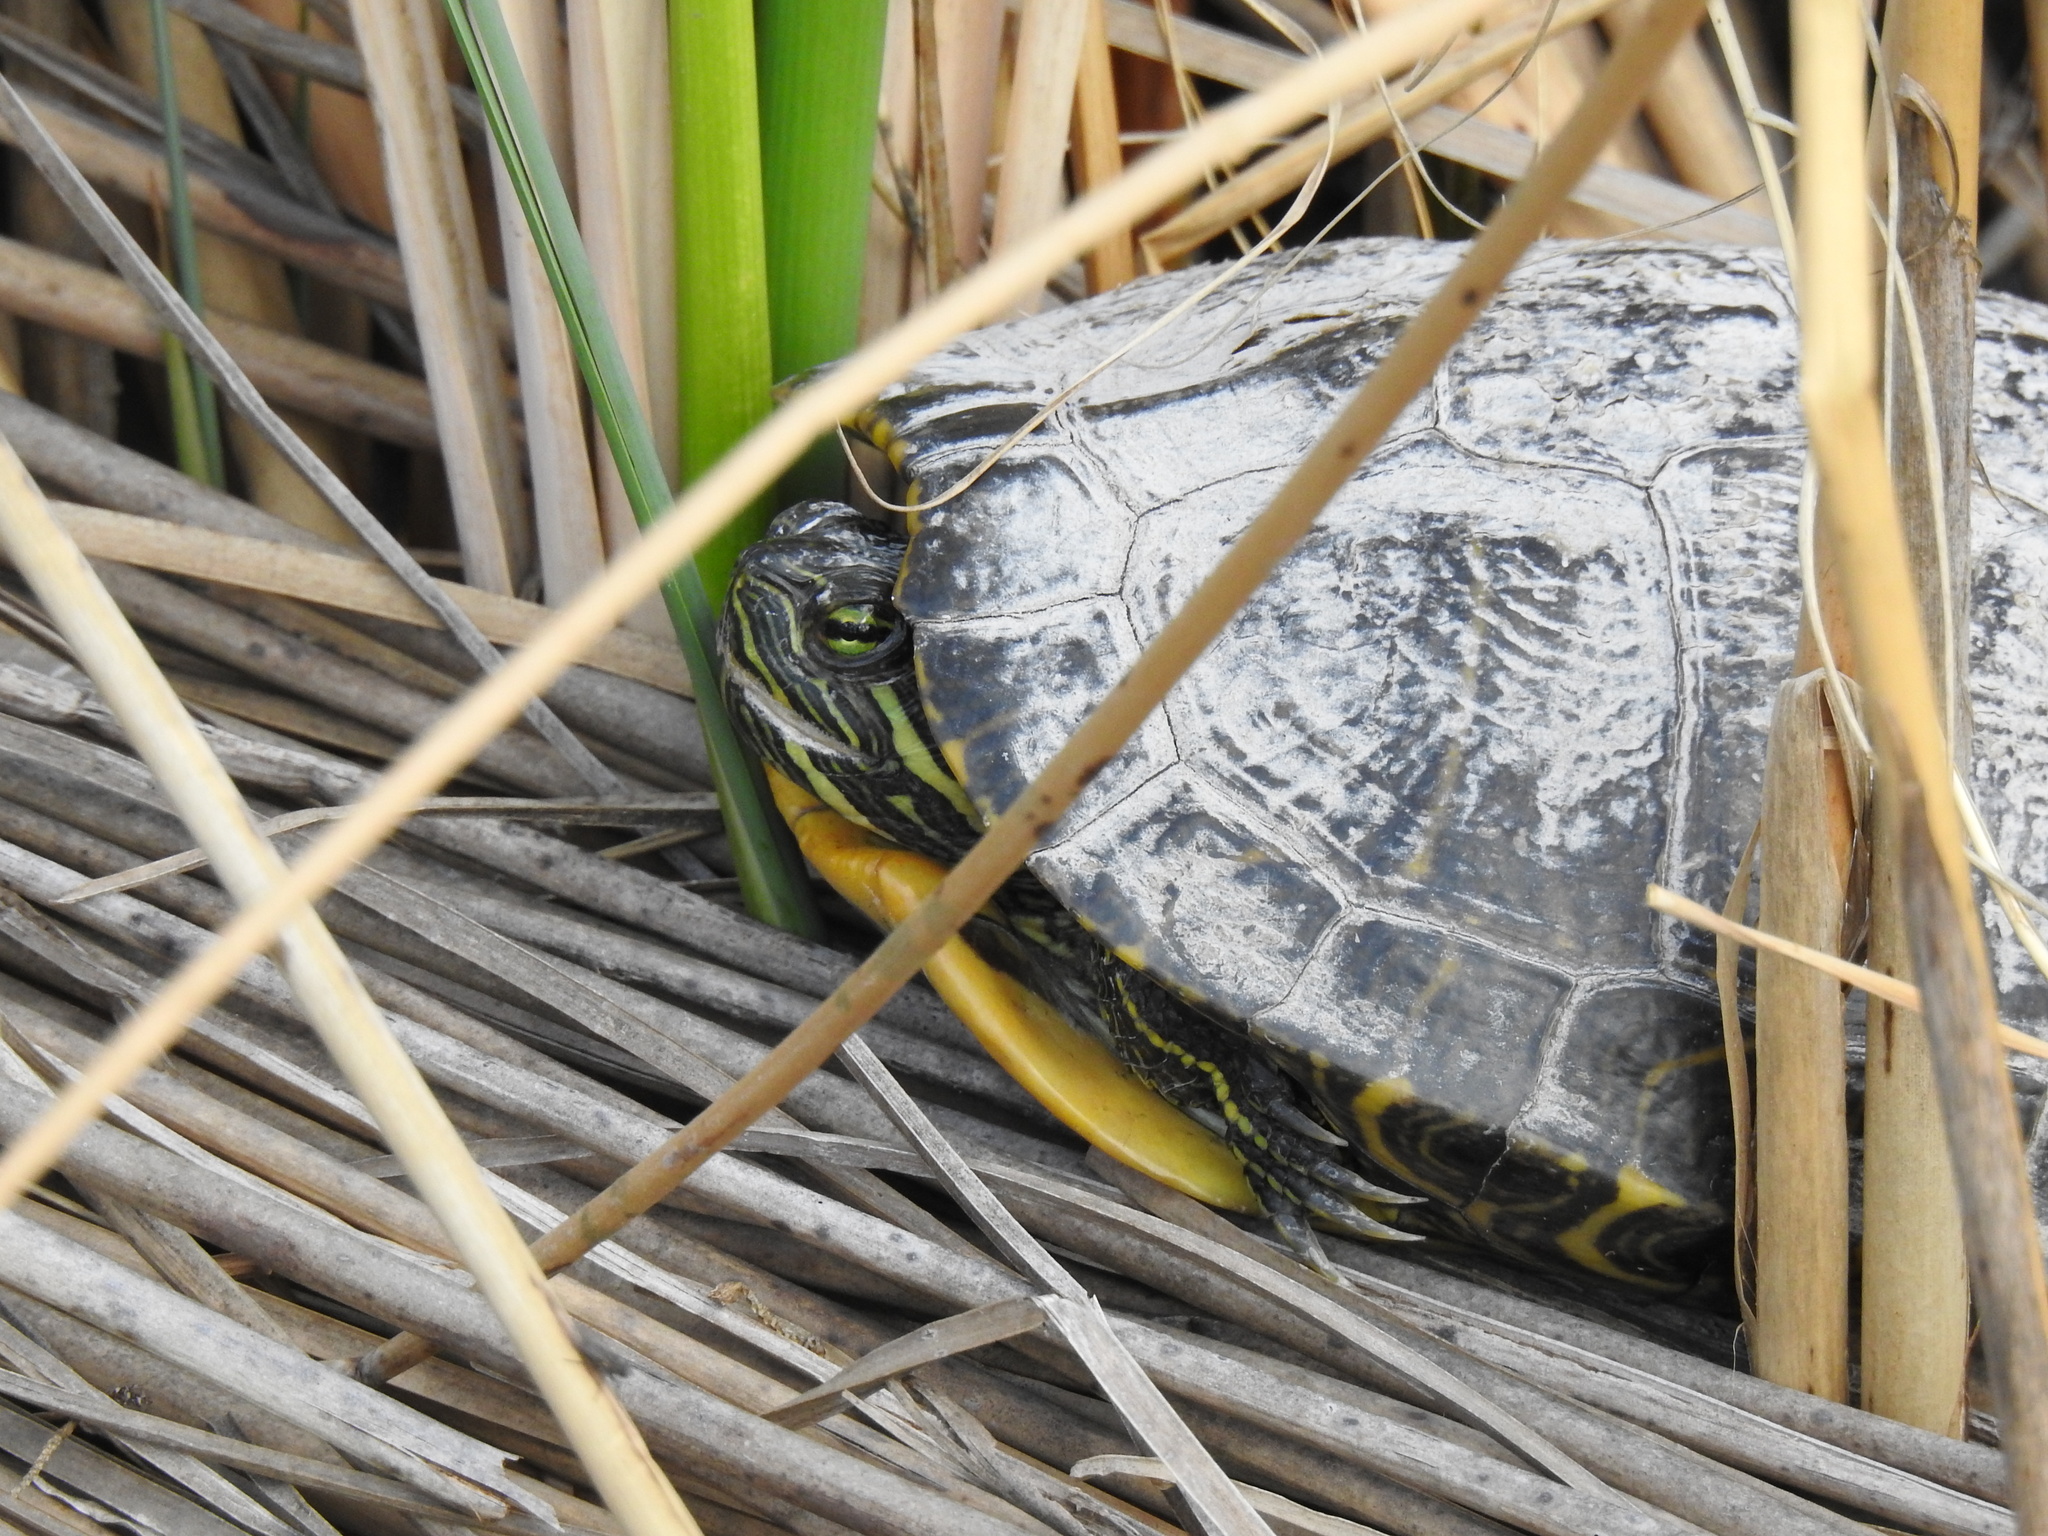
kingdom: Animalia
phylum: Chordata
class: Testudines
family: Emydidae
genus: Trachemys
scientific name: Trachemys scripta
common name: Slider
